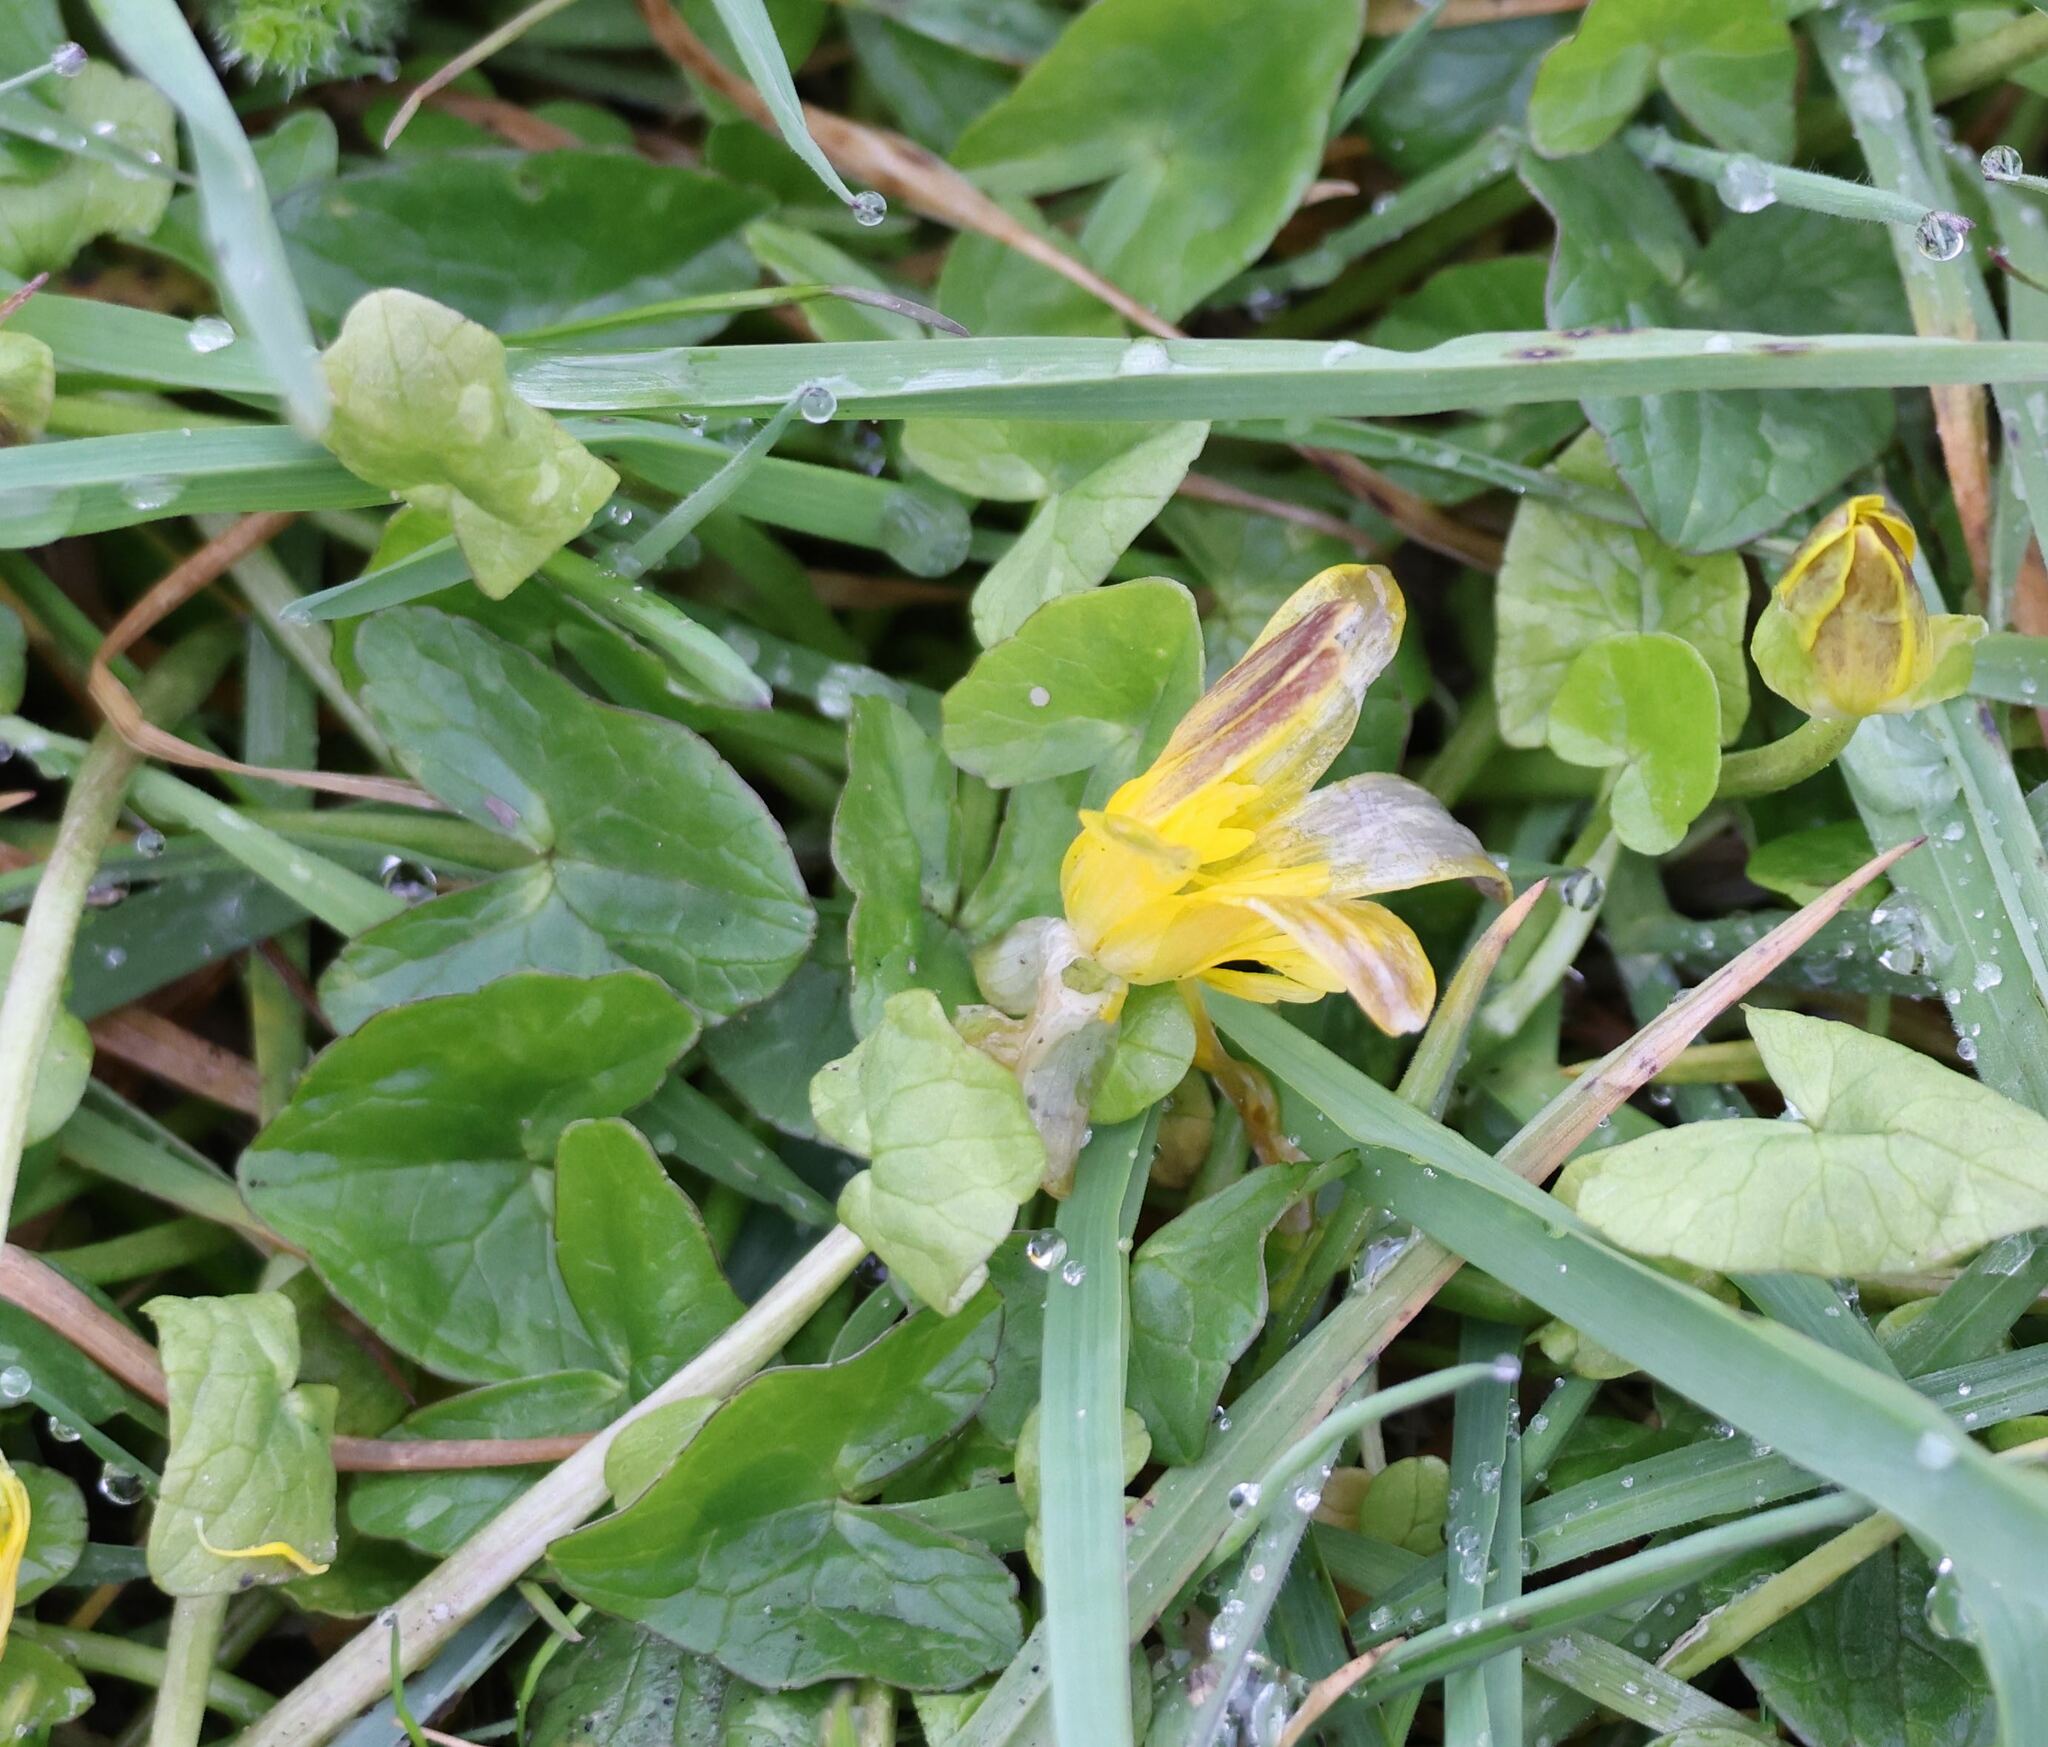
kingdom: Plantae
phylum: Tracheophyta
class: Magnoliopsida
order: Ranunculales
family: Ranunculaceae
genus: Ficaria
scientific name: Ficaria verna
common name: Lesser celandine
